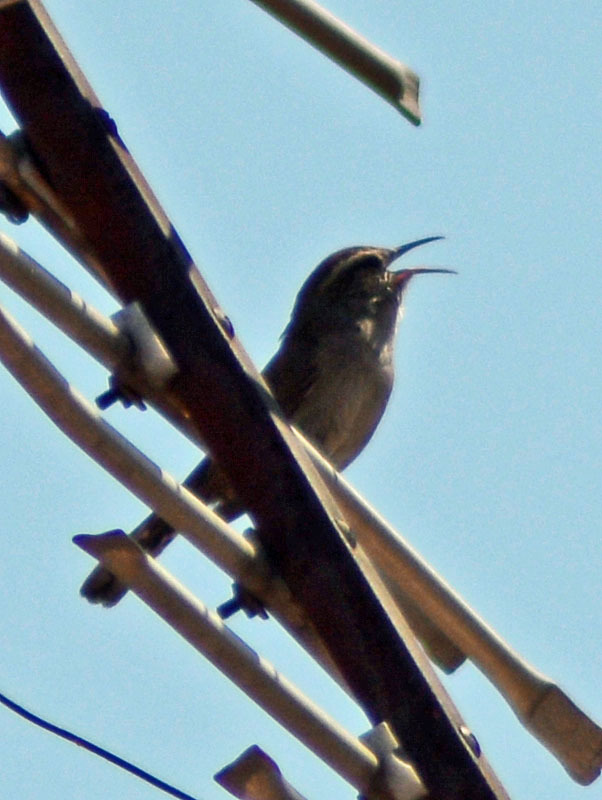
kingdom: Animalia
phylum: Chordata
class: Aves
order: Passeriformes
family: Troglodytidae
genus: Thryomanes
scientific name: Thryomanes bewickii
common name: Bewick's wren
